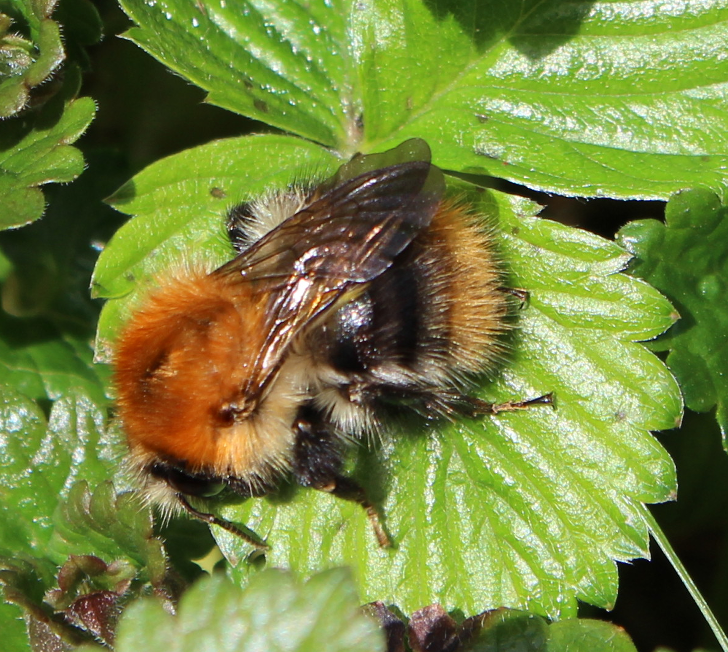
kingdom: Animalia
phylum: Arthropoda
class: Insecta
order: Hymenoptera
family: Apidae
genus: Bombus
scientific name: Bombus pascuorum
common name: Common carder bee
